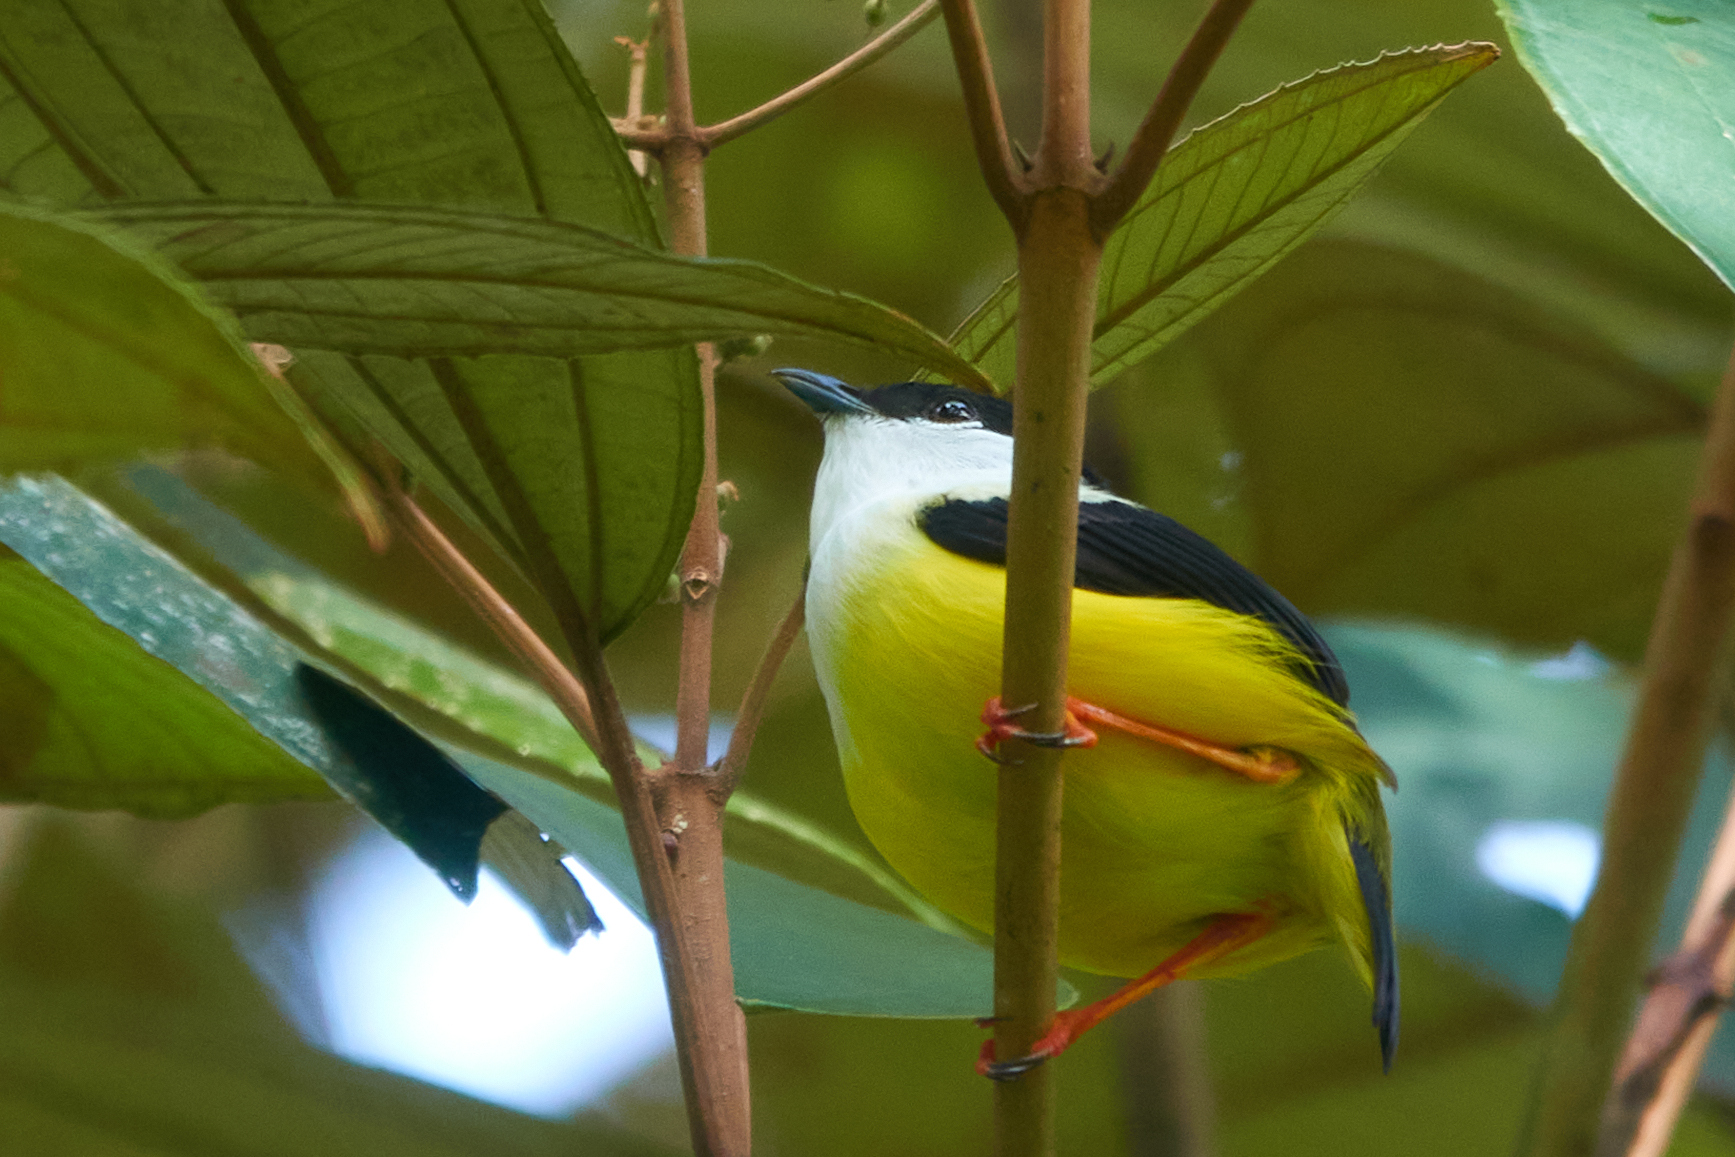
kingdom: Animalia
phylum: Chordata
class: Aves
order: Passeriformes
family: Pipridae
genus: Manacus
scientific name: Manacus candei
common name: White-collared manakin
